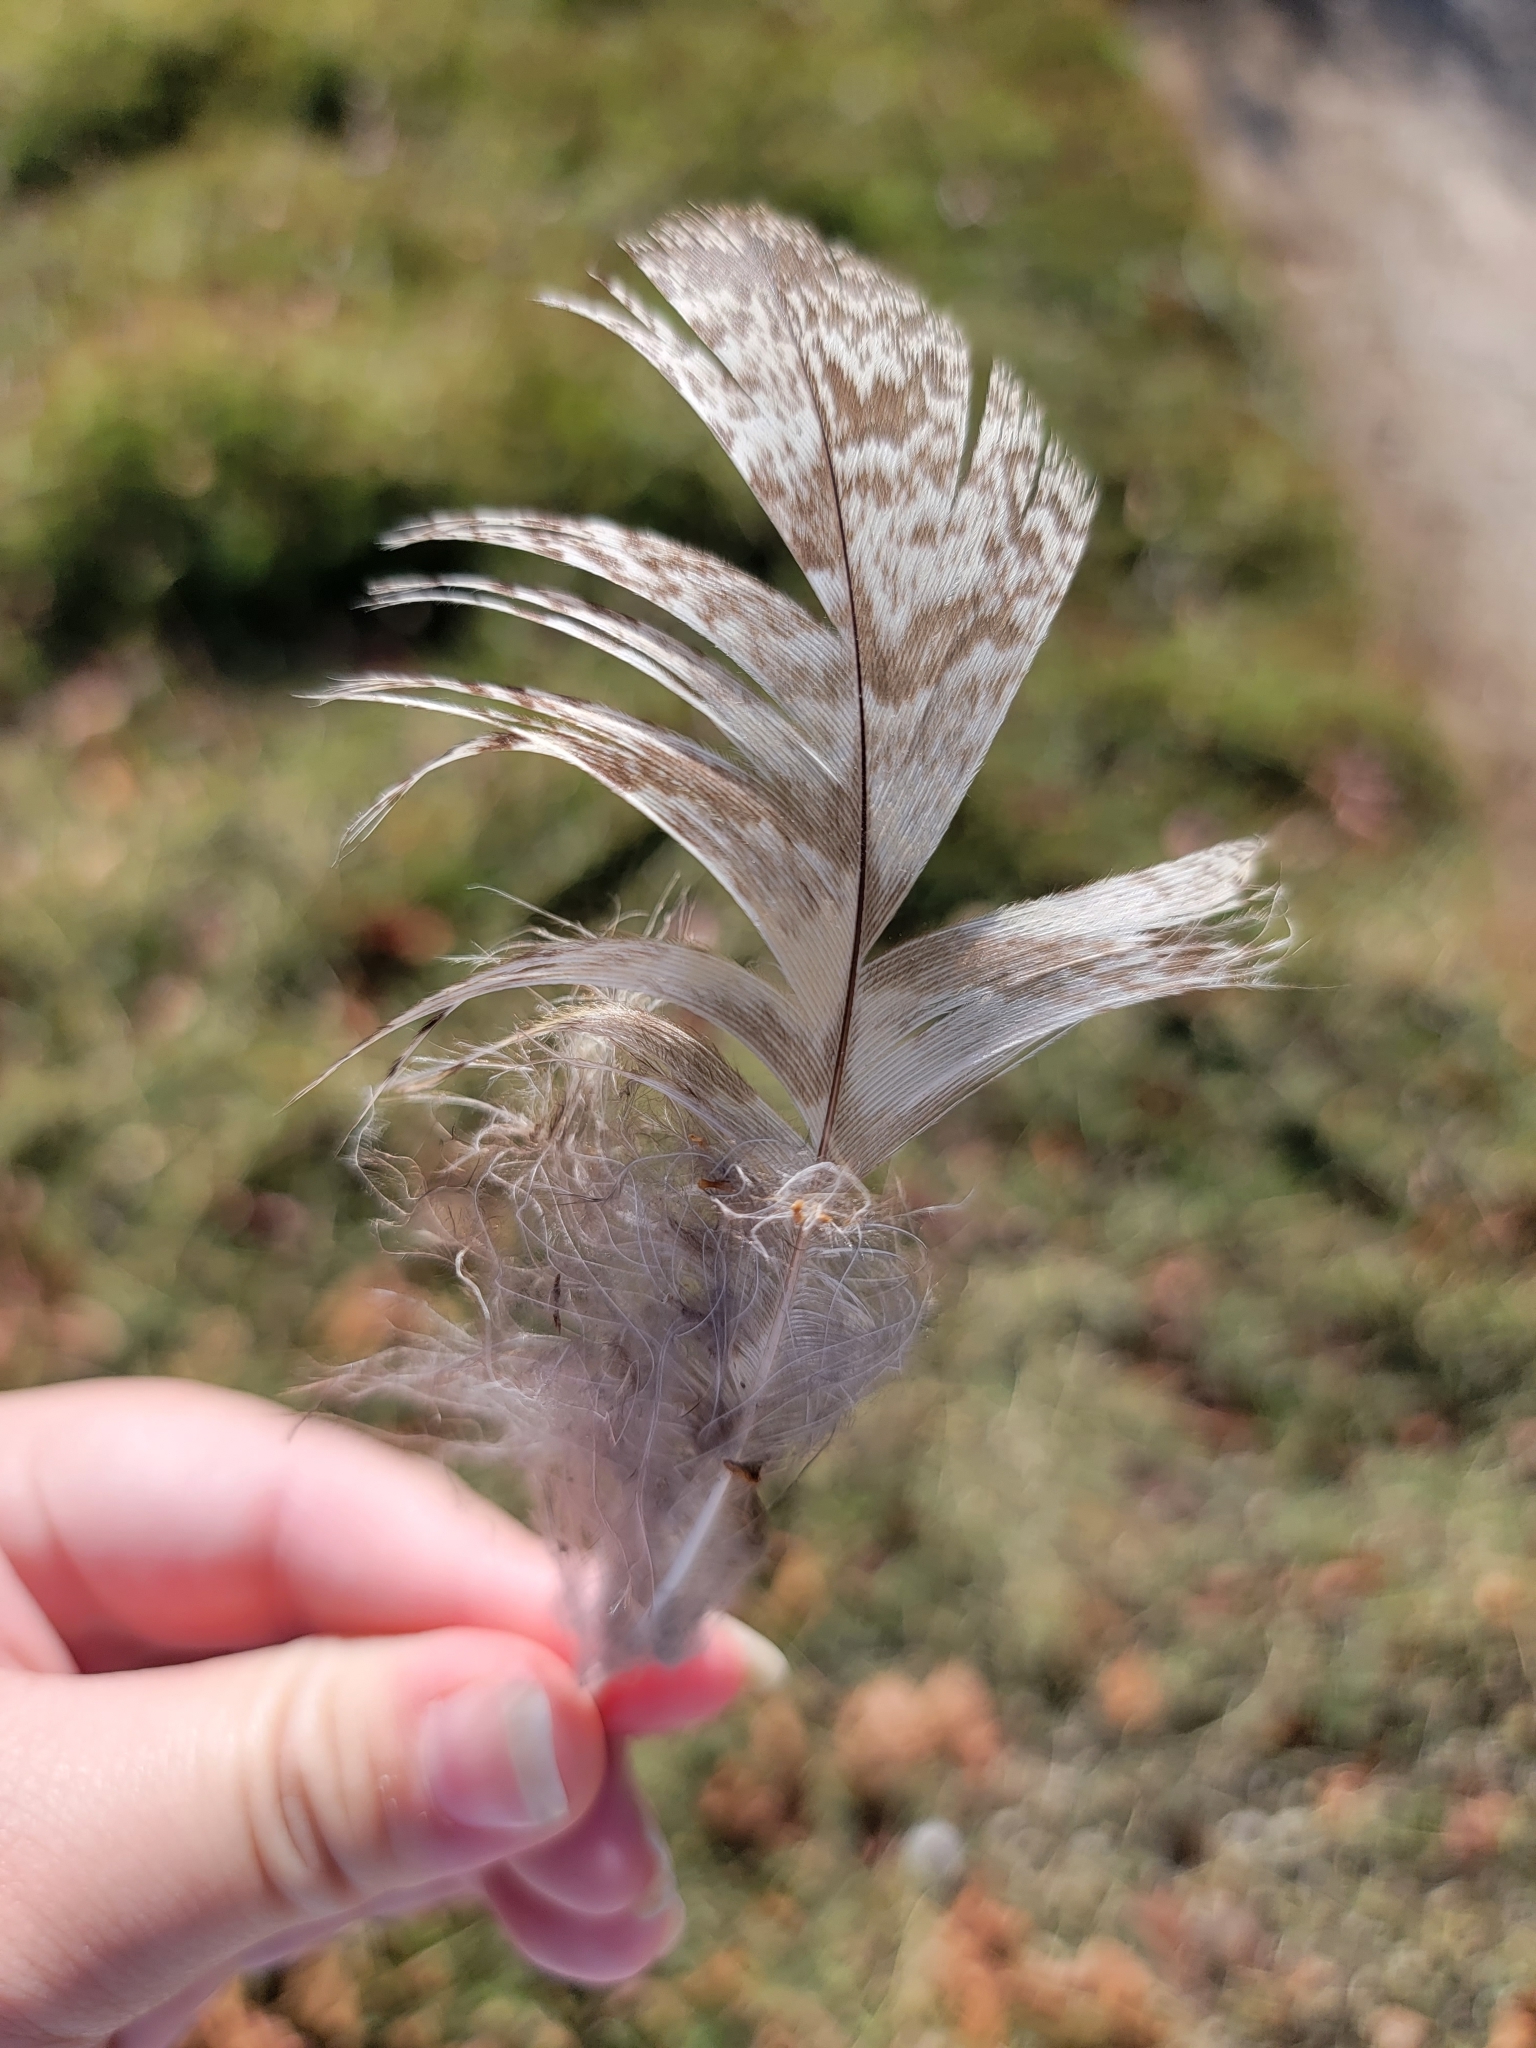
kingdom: Animalia
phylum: Chordata
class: Aves
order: Strigiformes
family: Strigidae
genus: Bubo
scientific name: Bubo virginianus
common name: Great horned owl
